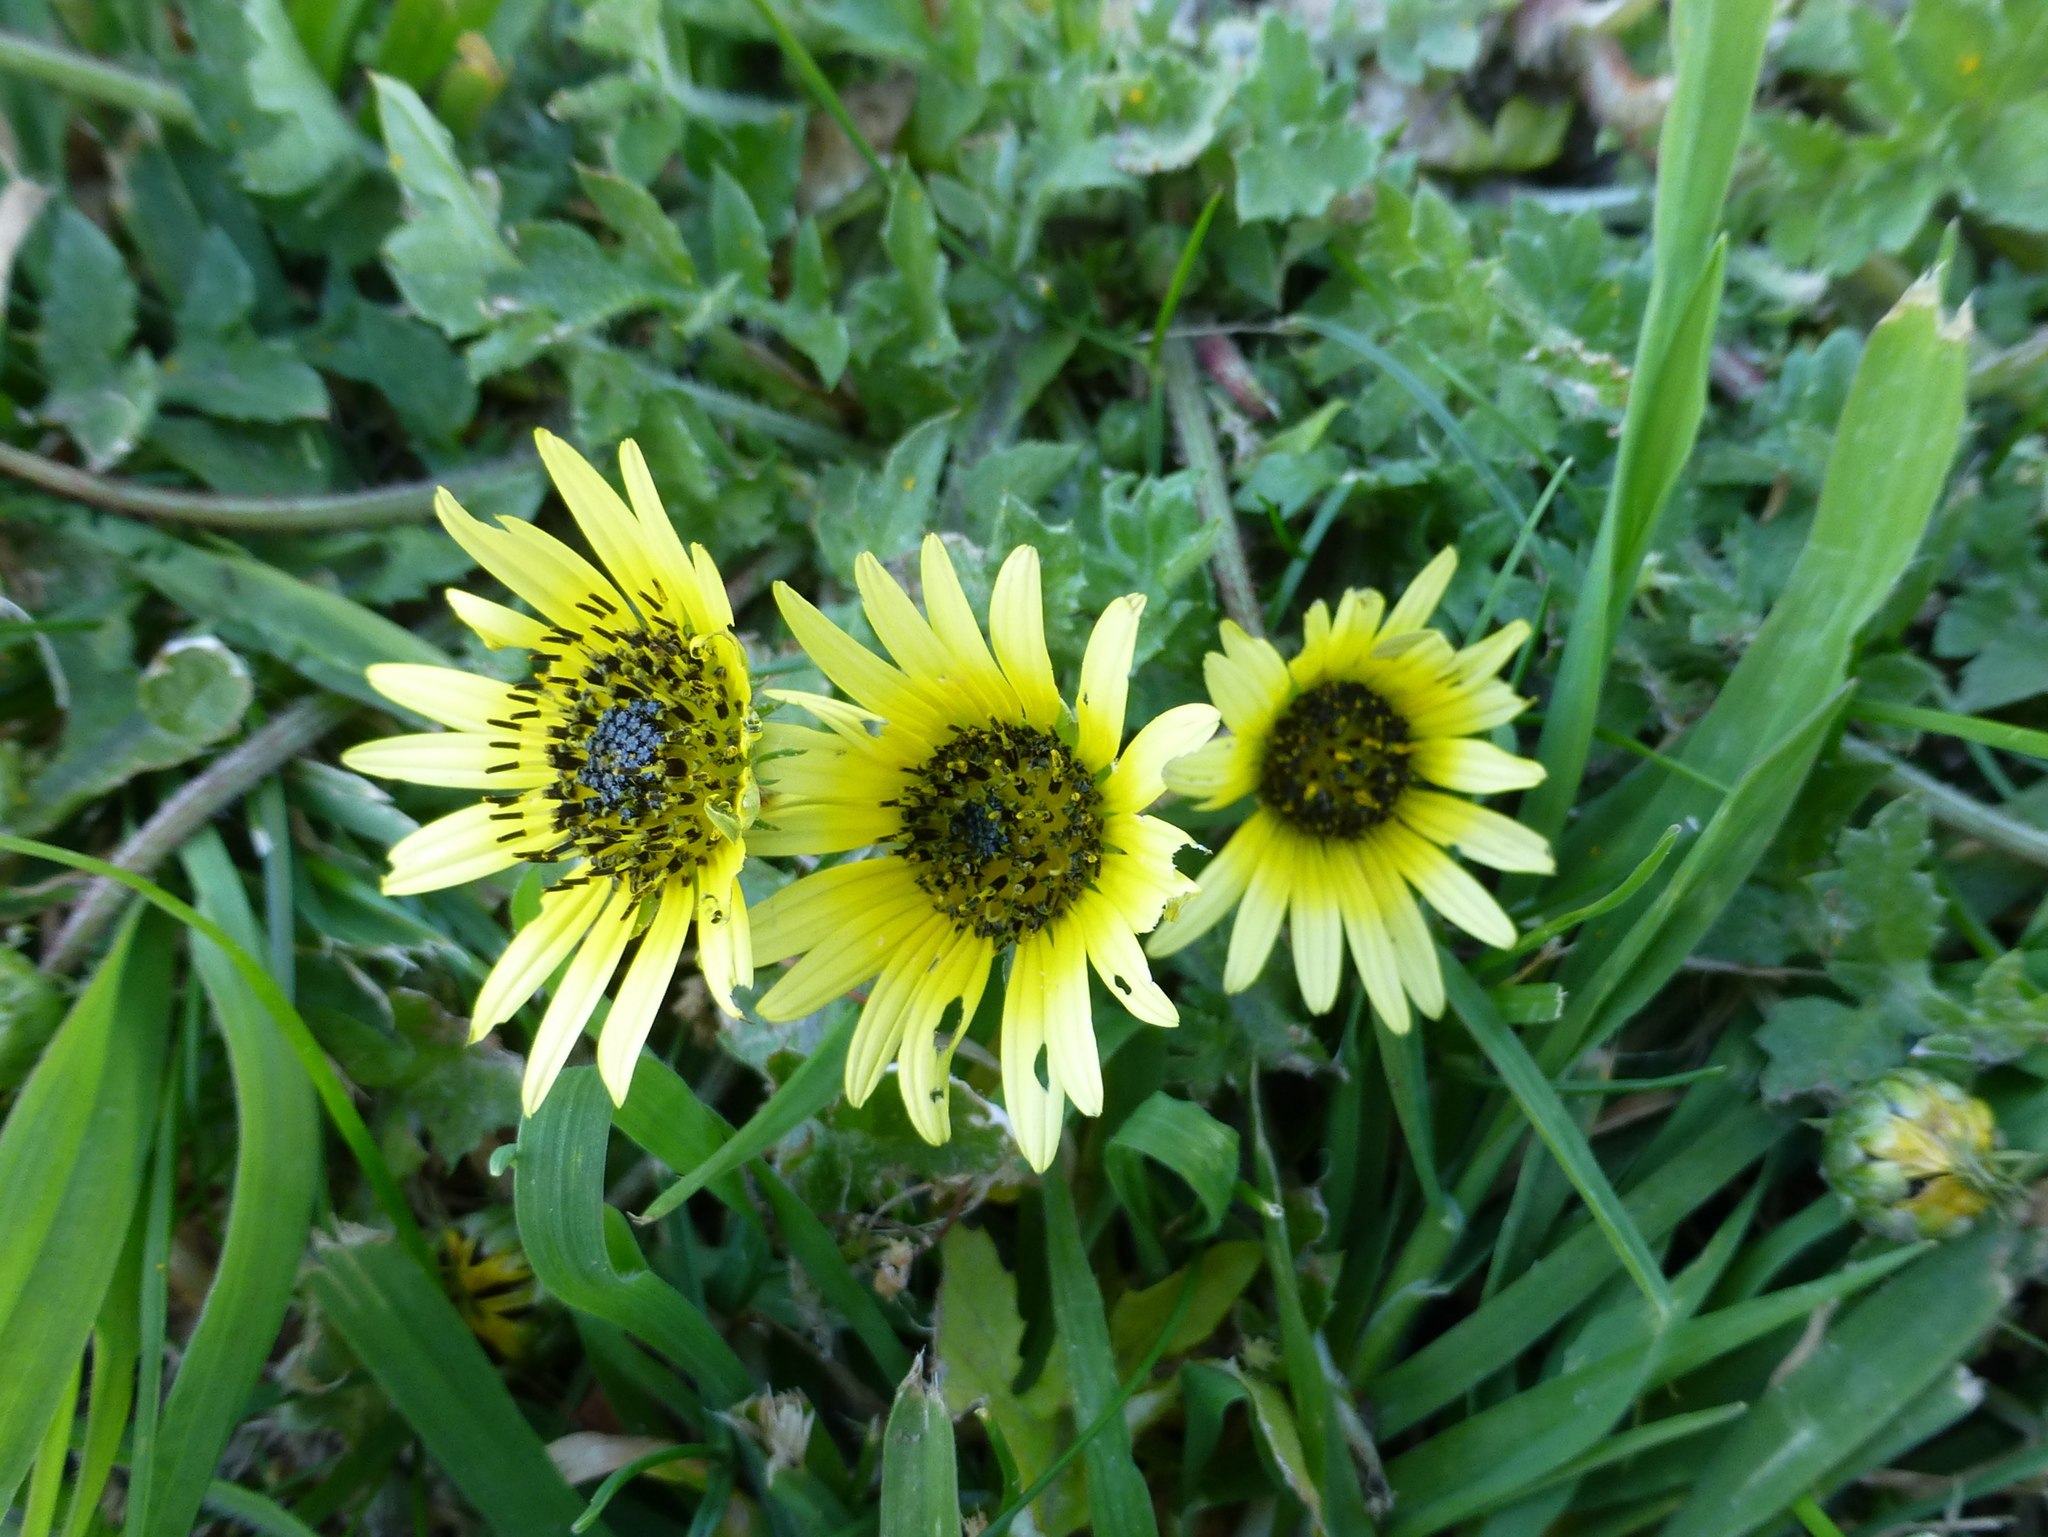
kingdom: Plantae
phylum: Tracheophyta
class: Magnoliopsida
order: Asterales
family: Asteraceae
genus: Arctotheca
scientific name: Arctotheca calendula
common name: Capeweed
